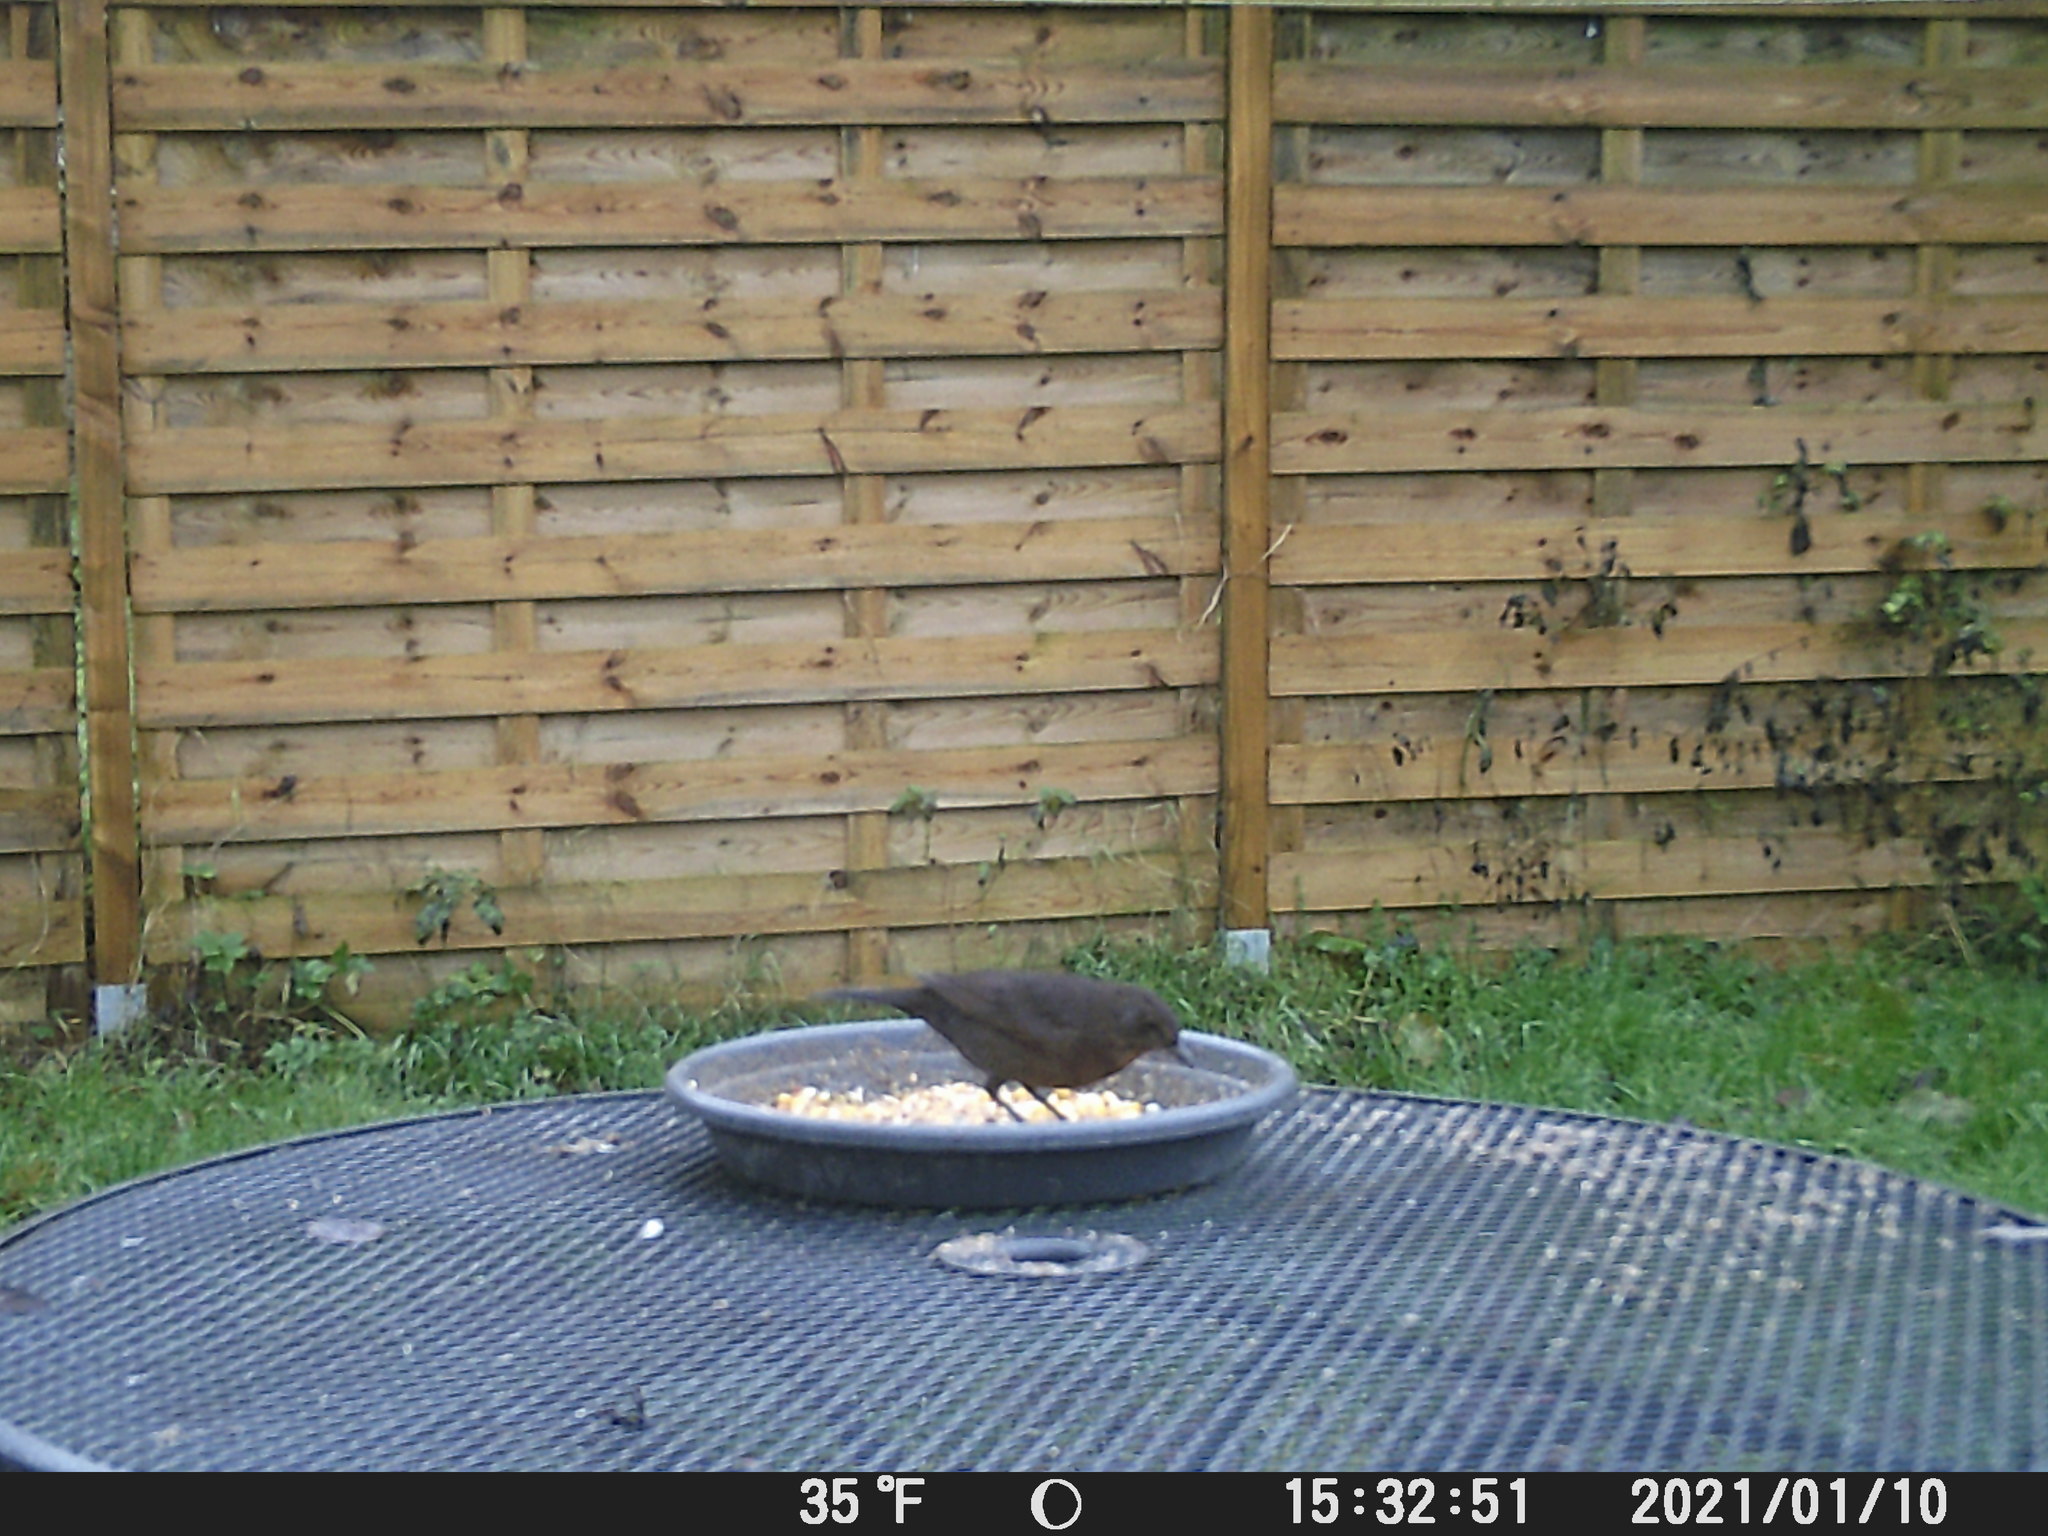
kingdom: Animalia
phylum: Chordata
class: Aves
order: Passeriformes
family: Turdidae
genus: Turdus
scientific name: Turdus merula
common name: Common blackbird
